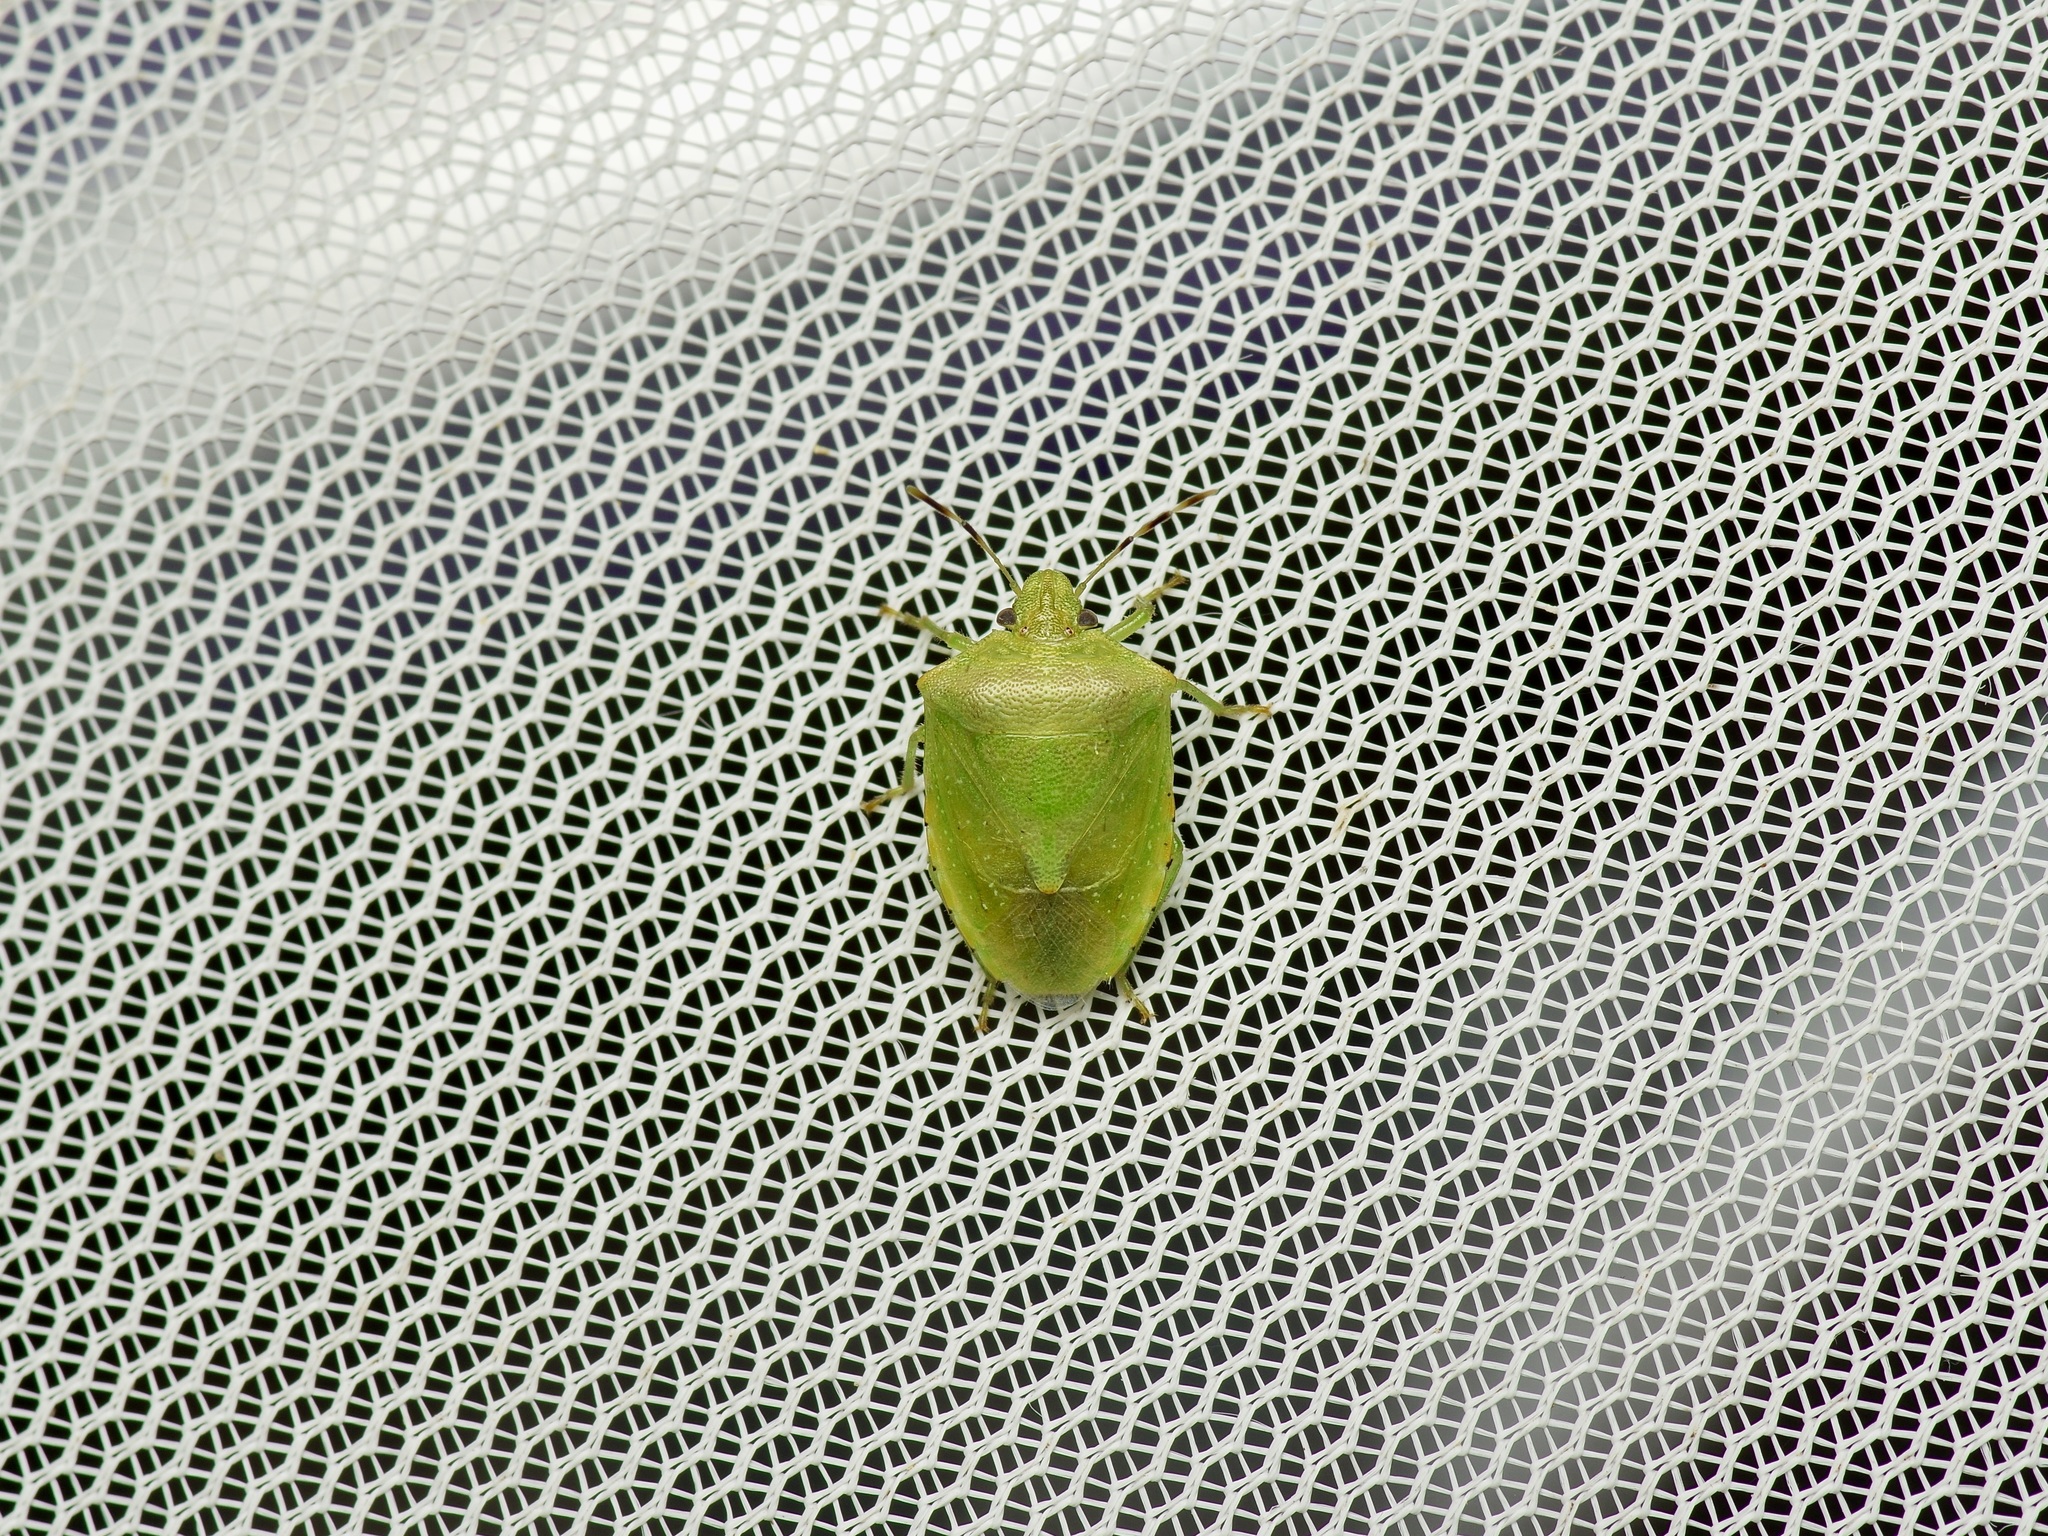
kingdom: Animalia
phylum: Arthropoda
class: Insecta
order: Hemiptera
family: Pentatomidae
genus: Thyanta
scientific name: Thyanta maculata
